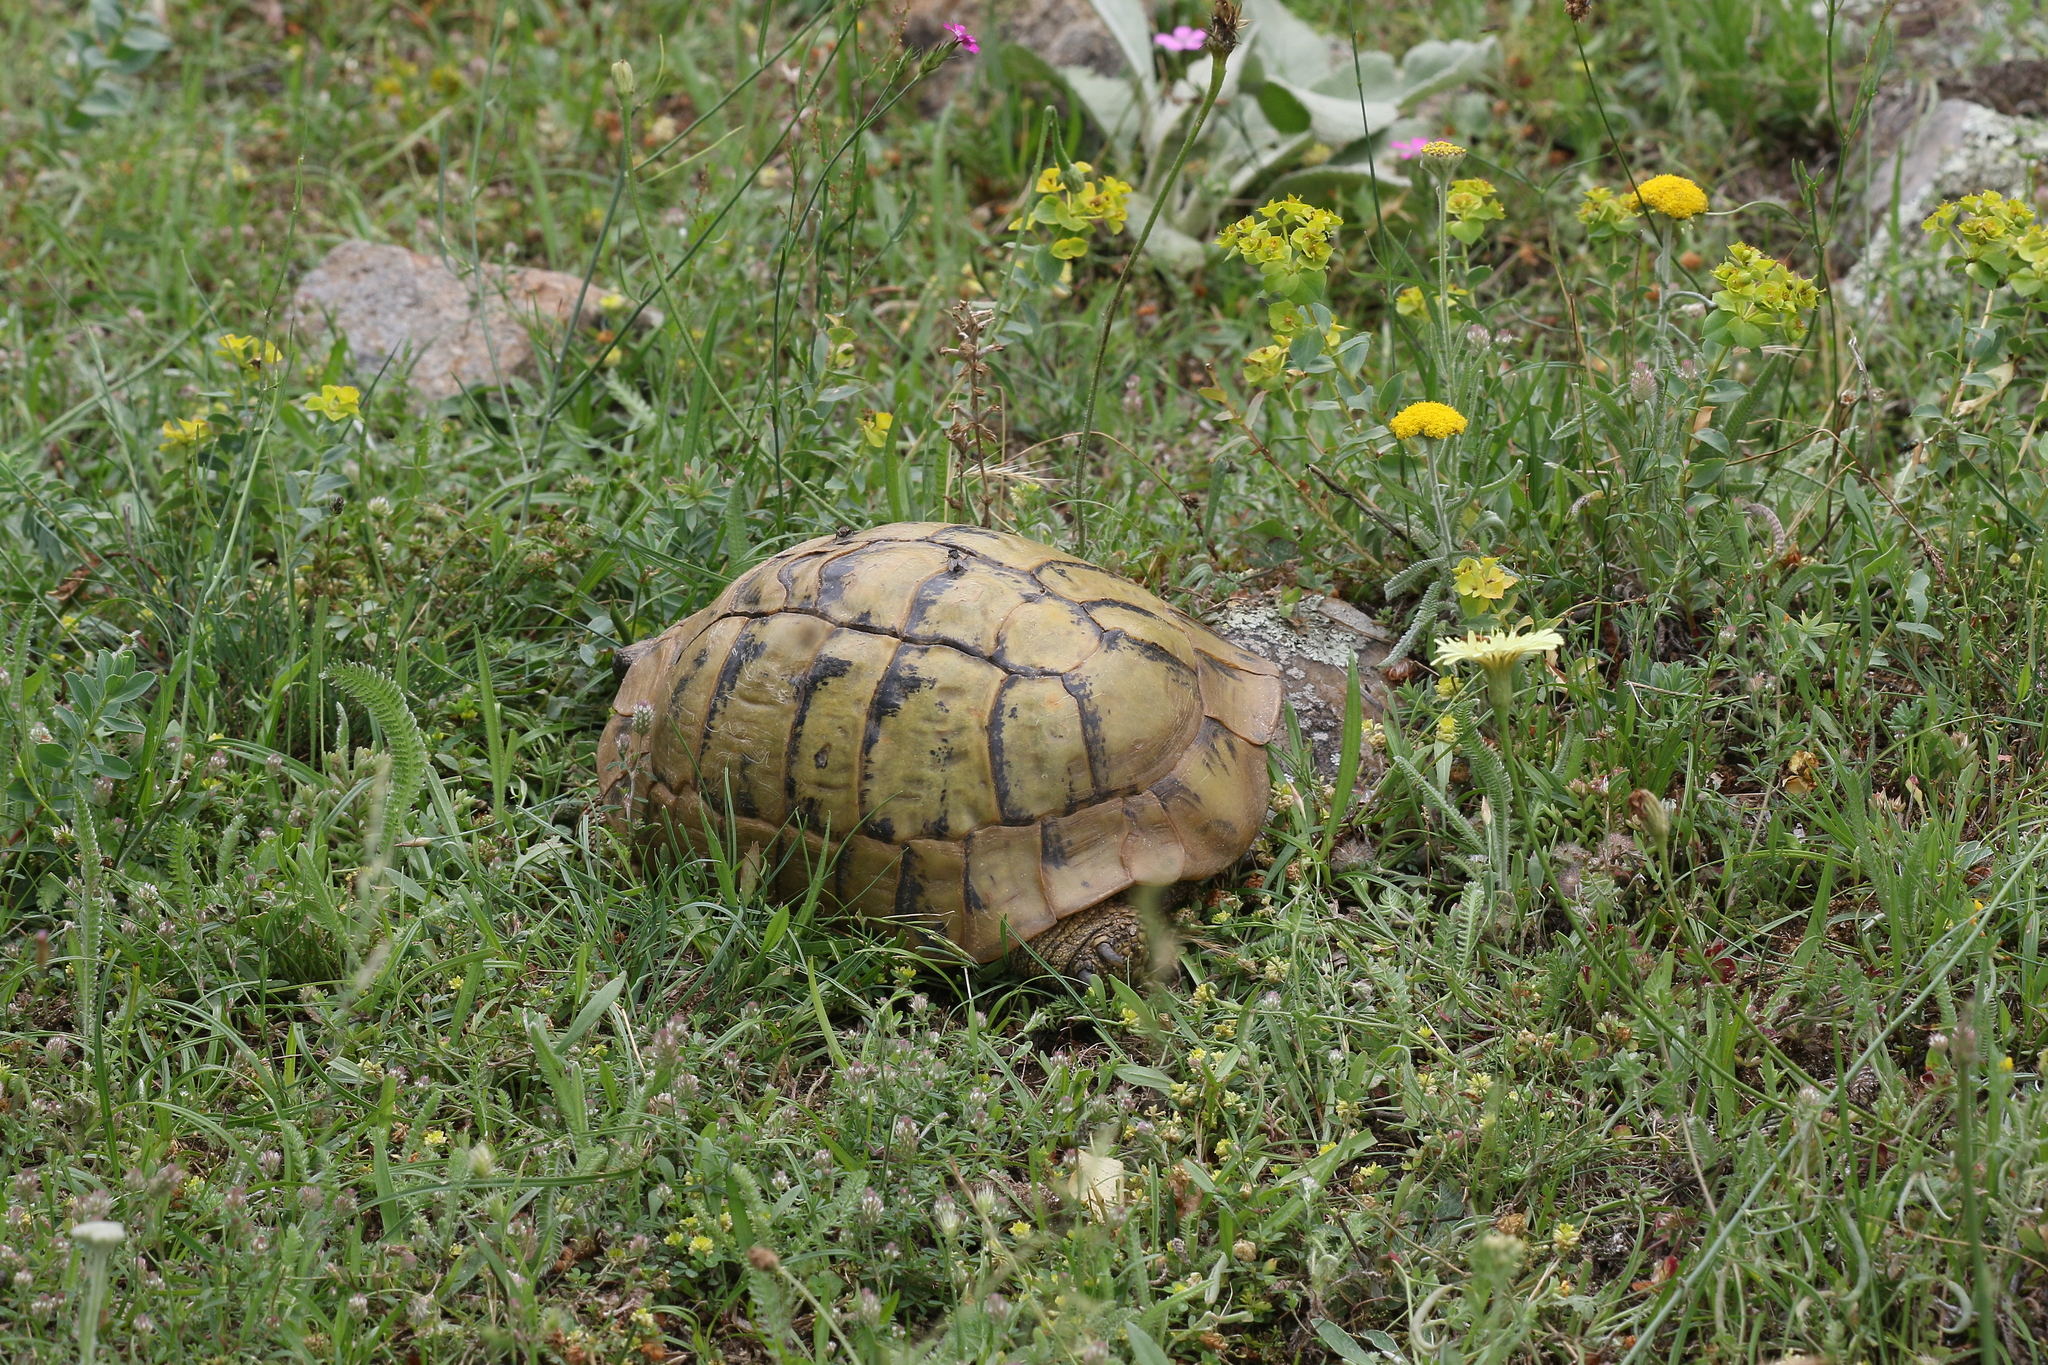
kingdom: Animalia
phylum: Chordata
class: Testudines
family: Testudinidae
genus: Testudo
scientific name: Testudo hermanni
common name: Hermann's tortoise
